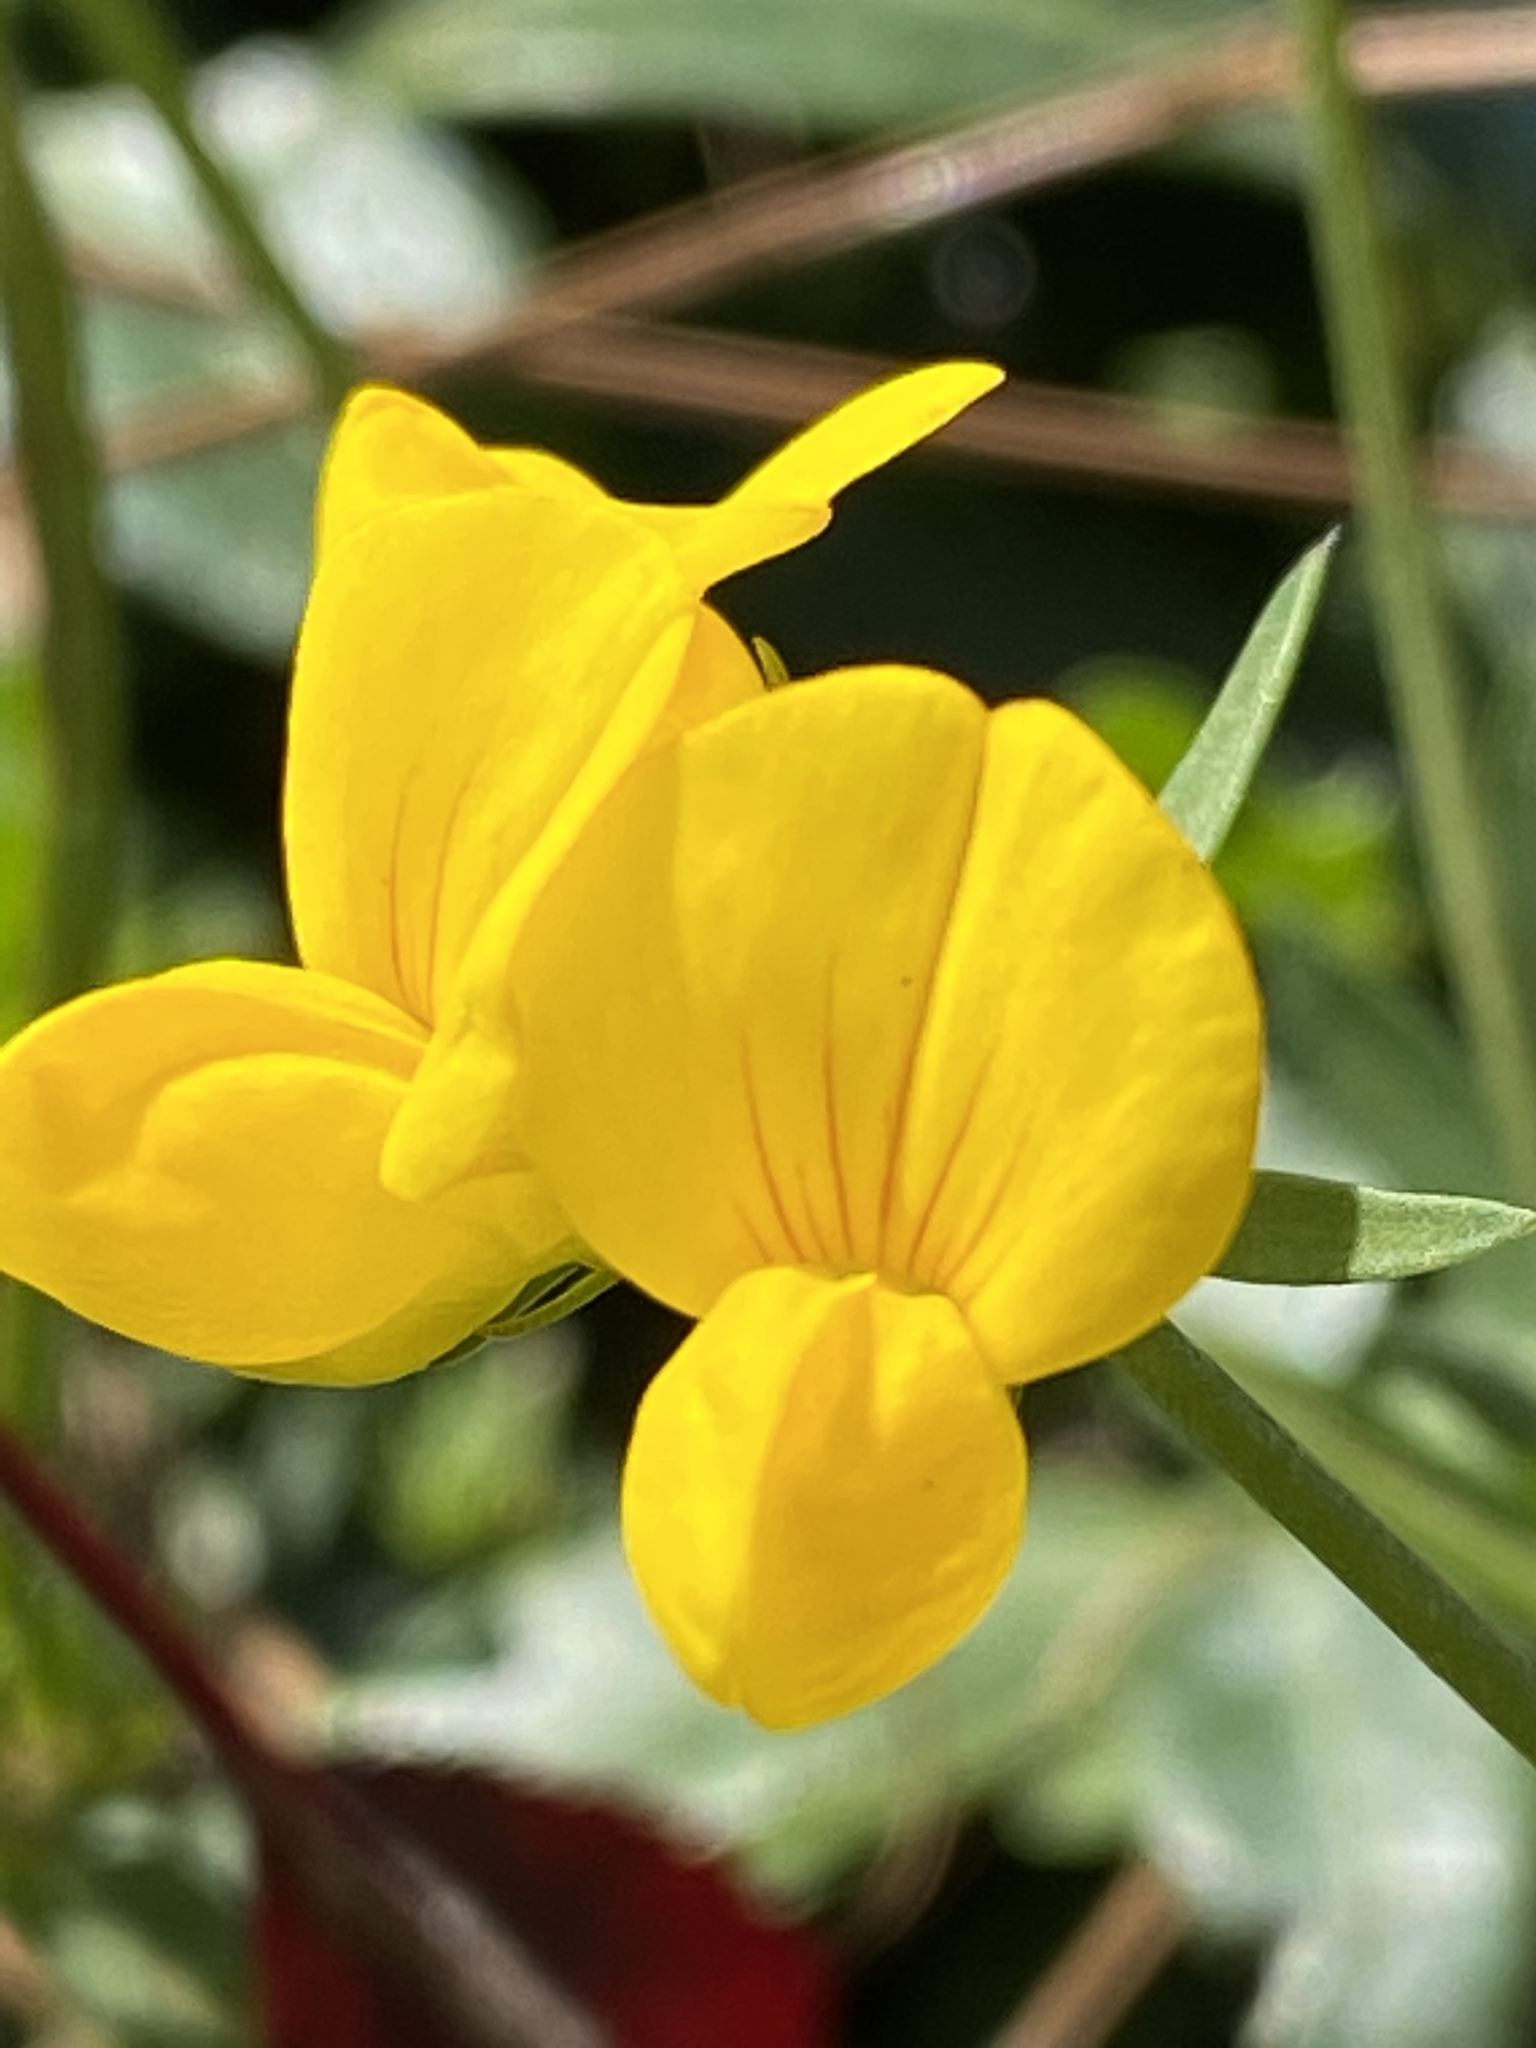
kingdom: Plantae
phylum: Tracheophyta
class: Magnoliopsida
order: Fabales
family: Fabaceae
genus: Lotus
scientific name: Lotus corniculatus
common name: Common bird's-foot-trefoil
